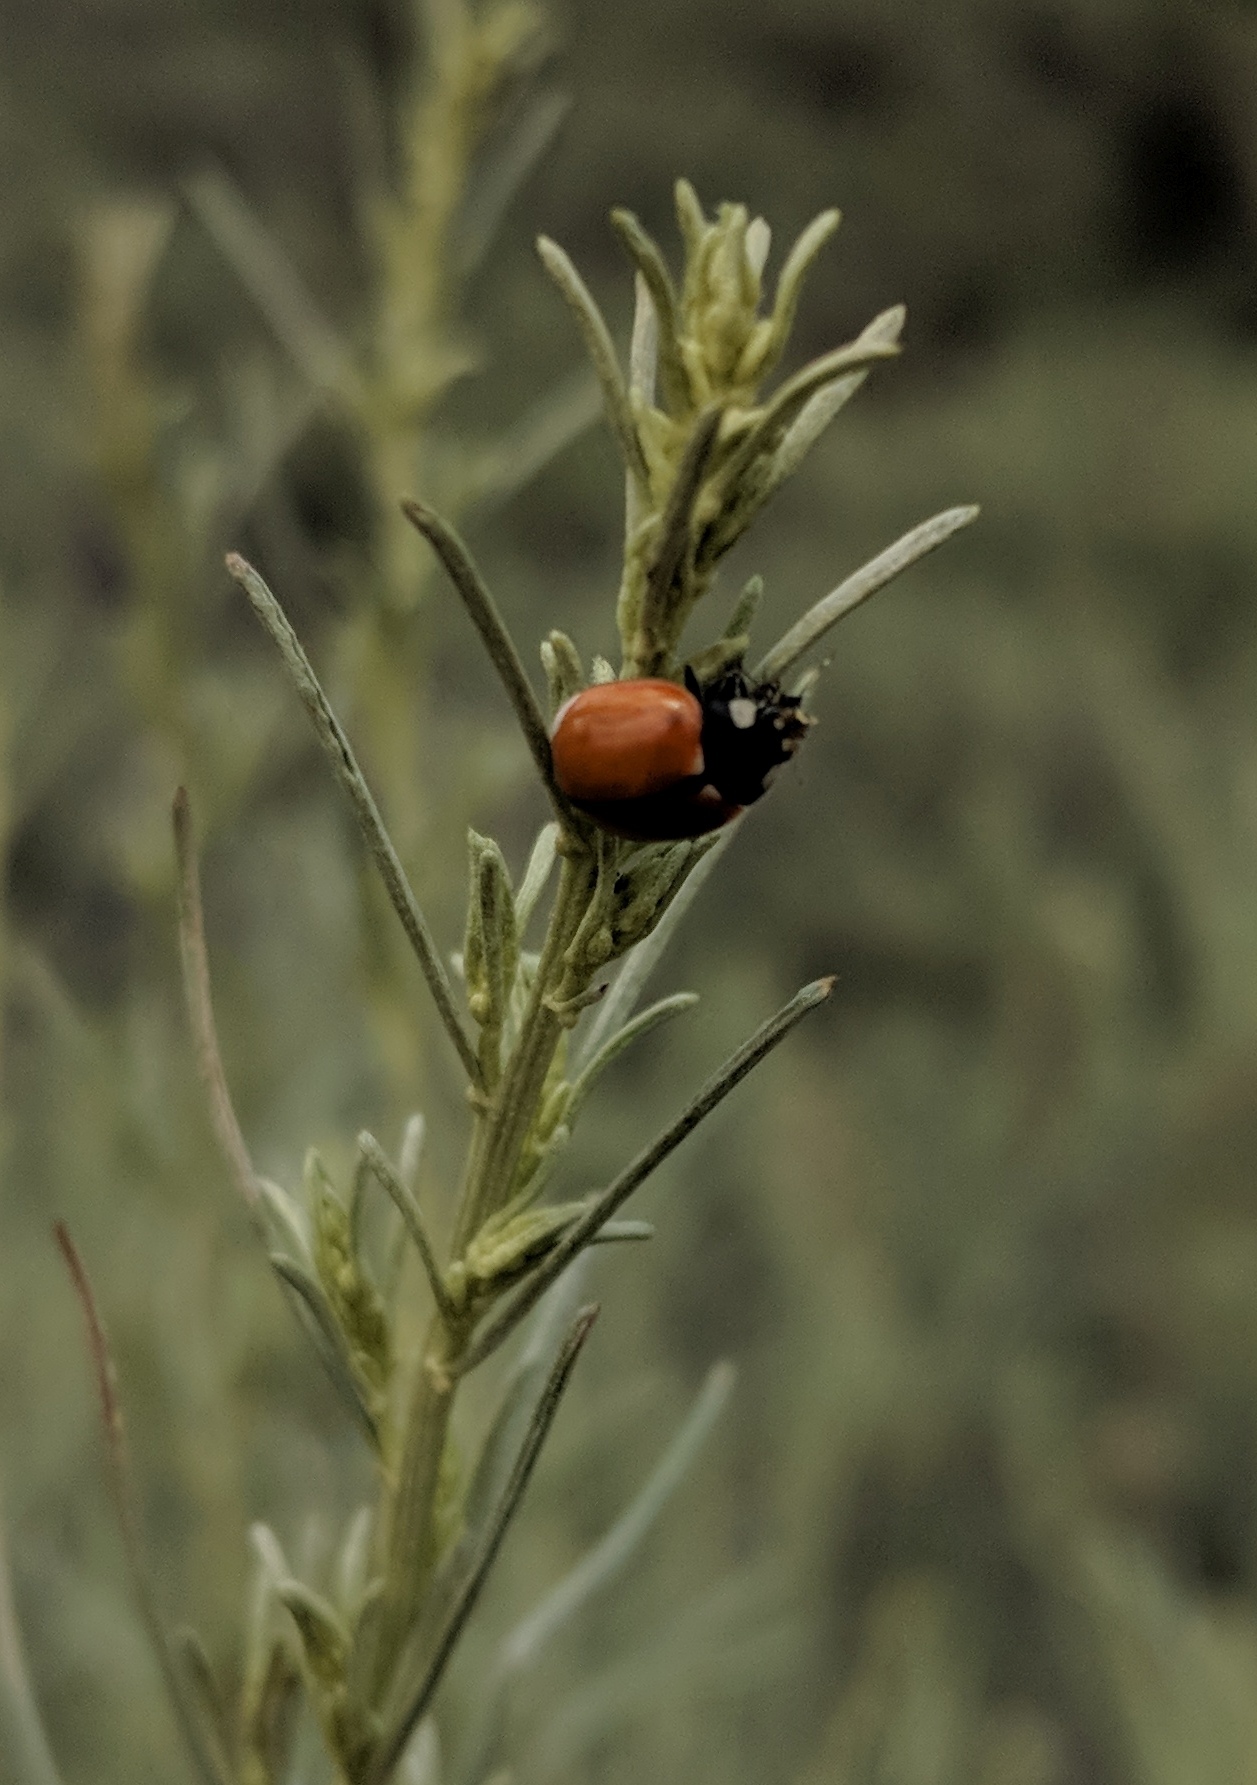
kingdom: Animalia
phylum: Arthropoda
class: Insecta
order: Coleoptera
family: Coccinellidae
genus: Coccinella
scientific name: Coccinella californica
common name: Lady beetle
